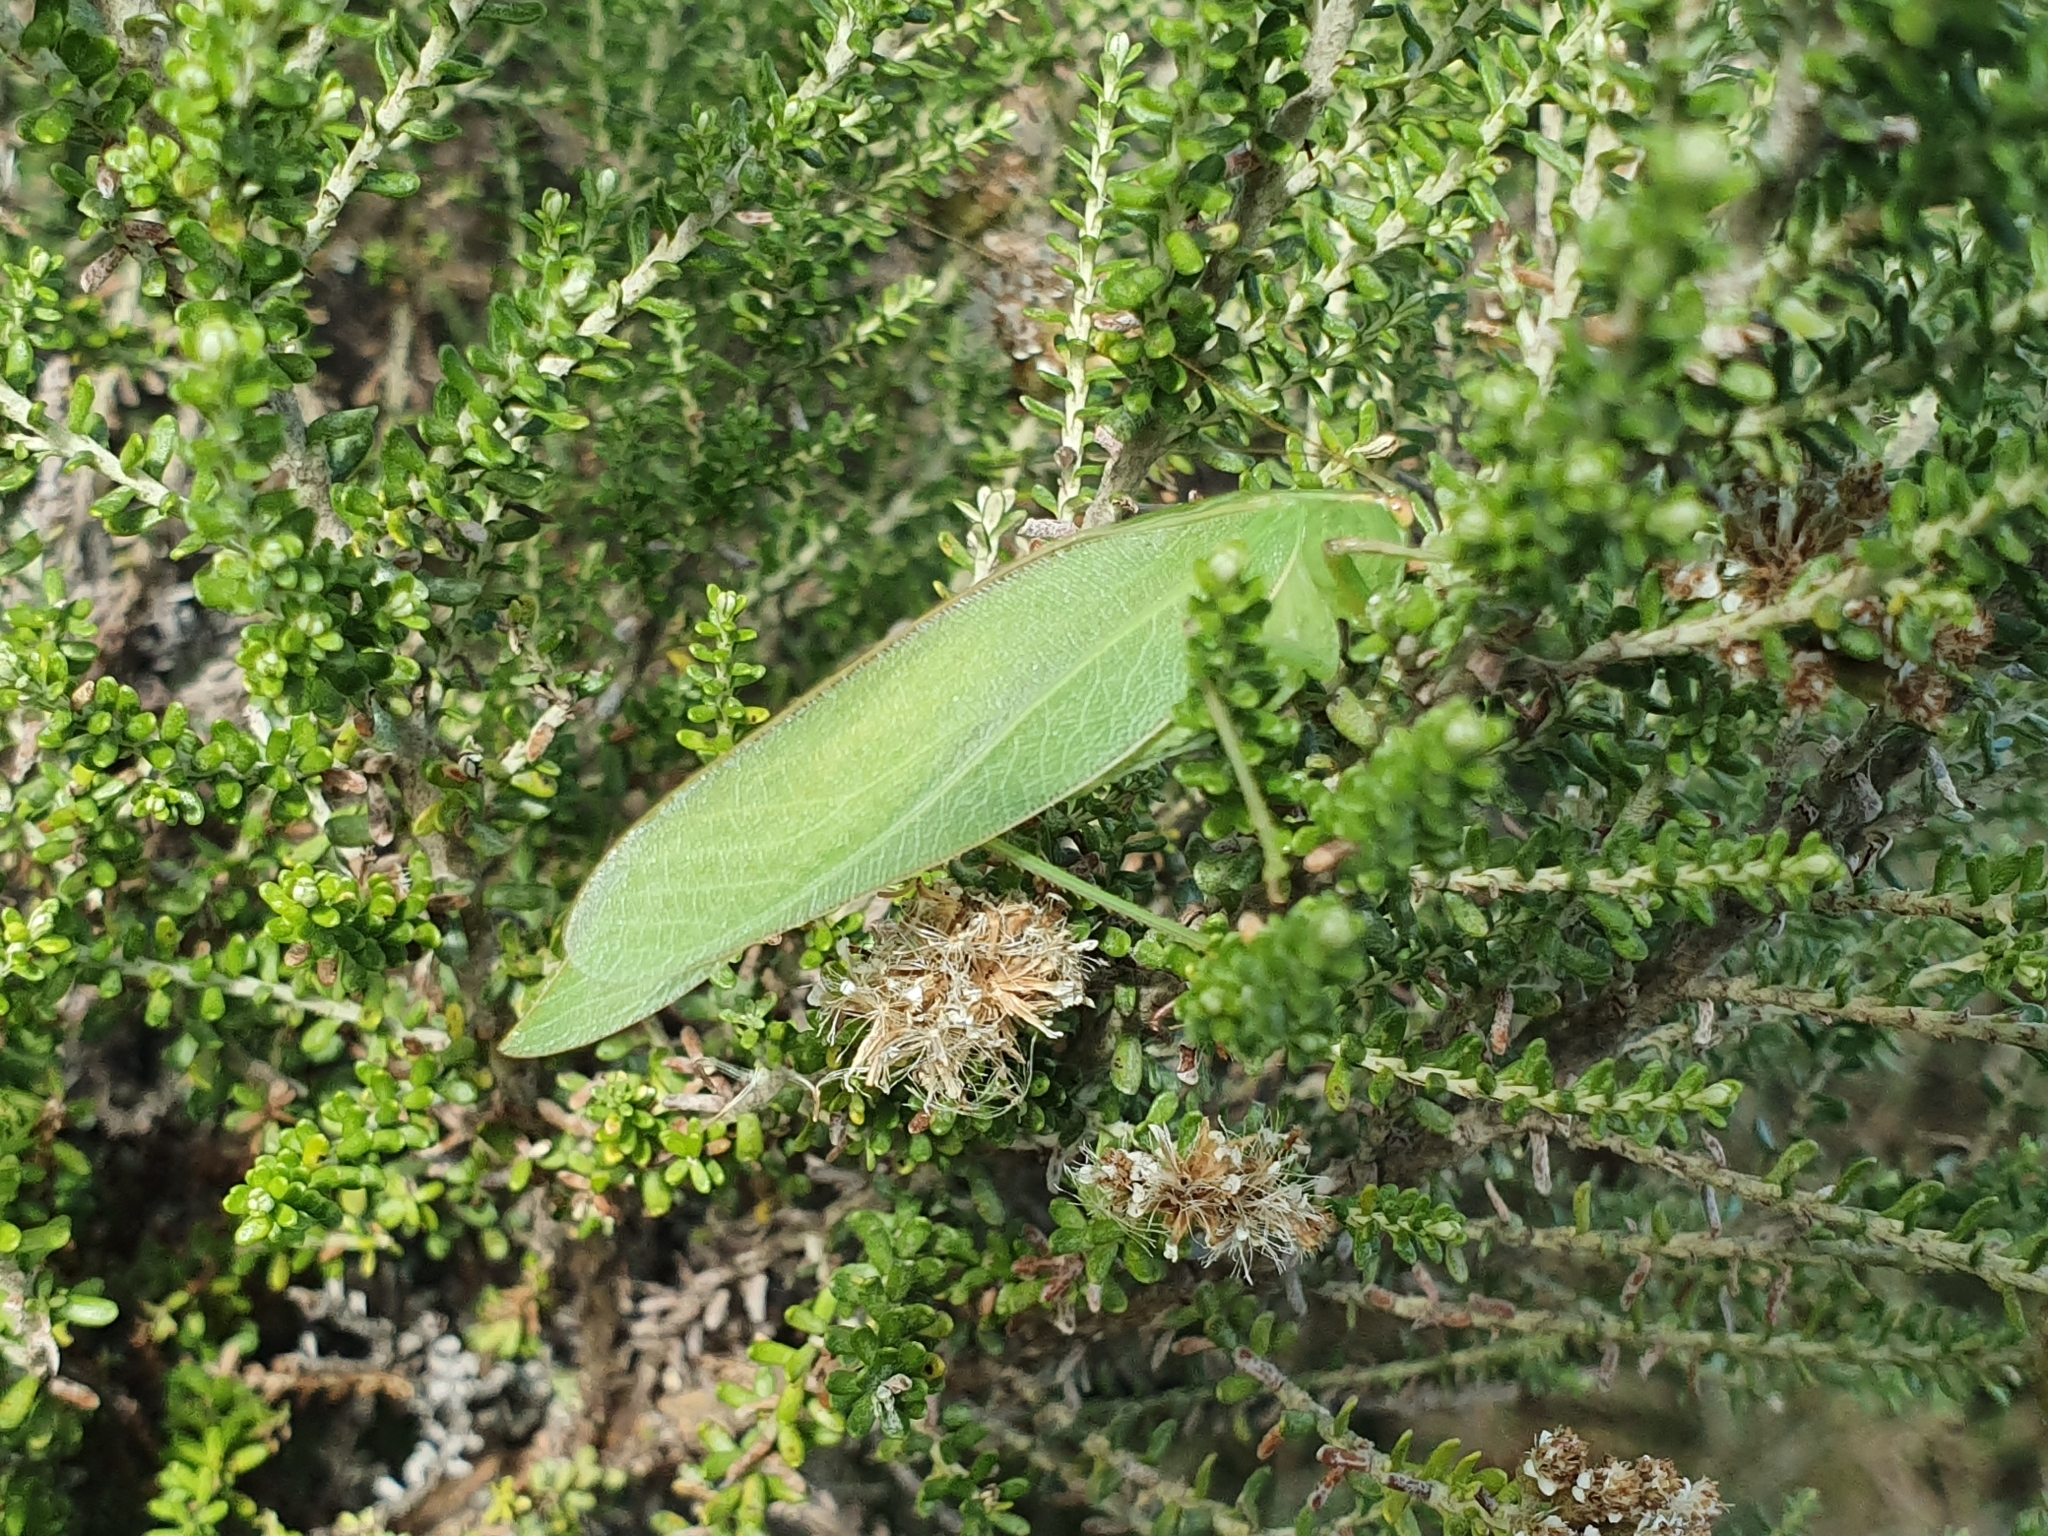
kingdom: Animalia
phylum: Arthropoda
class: Insecta
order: Orthoptera
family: Tettigoniidae
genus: Caedicia
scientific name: Caedicia simplex
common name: Common garden katydid
